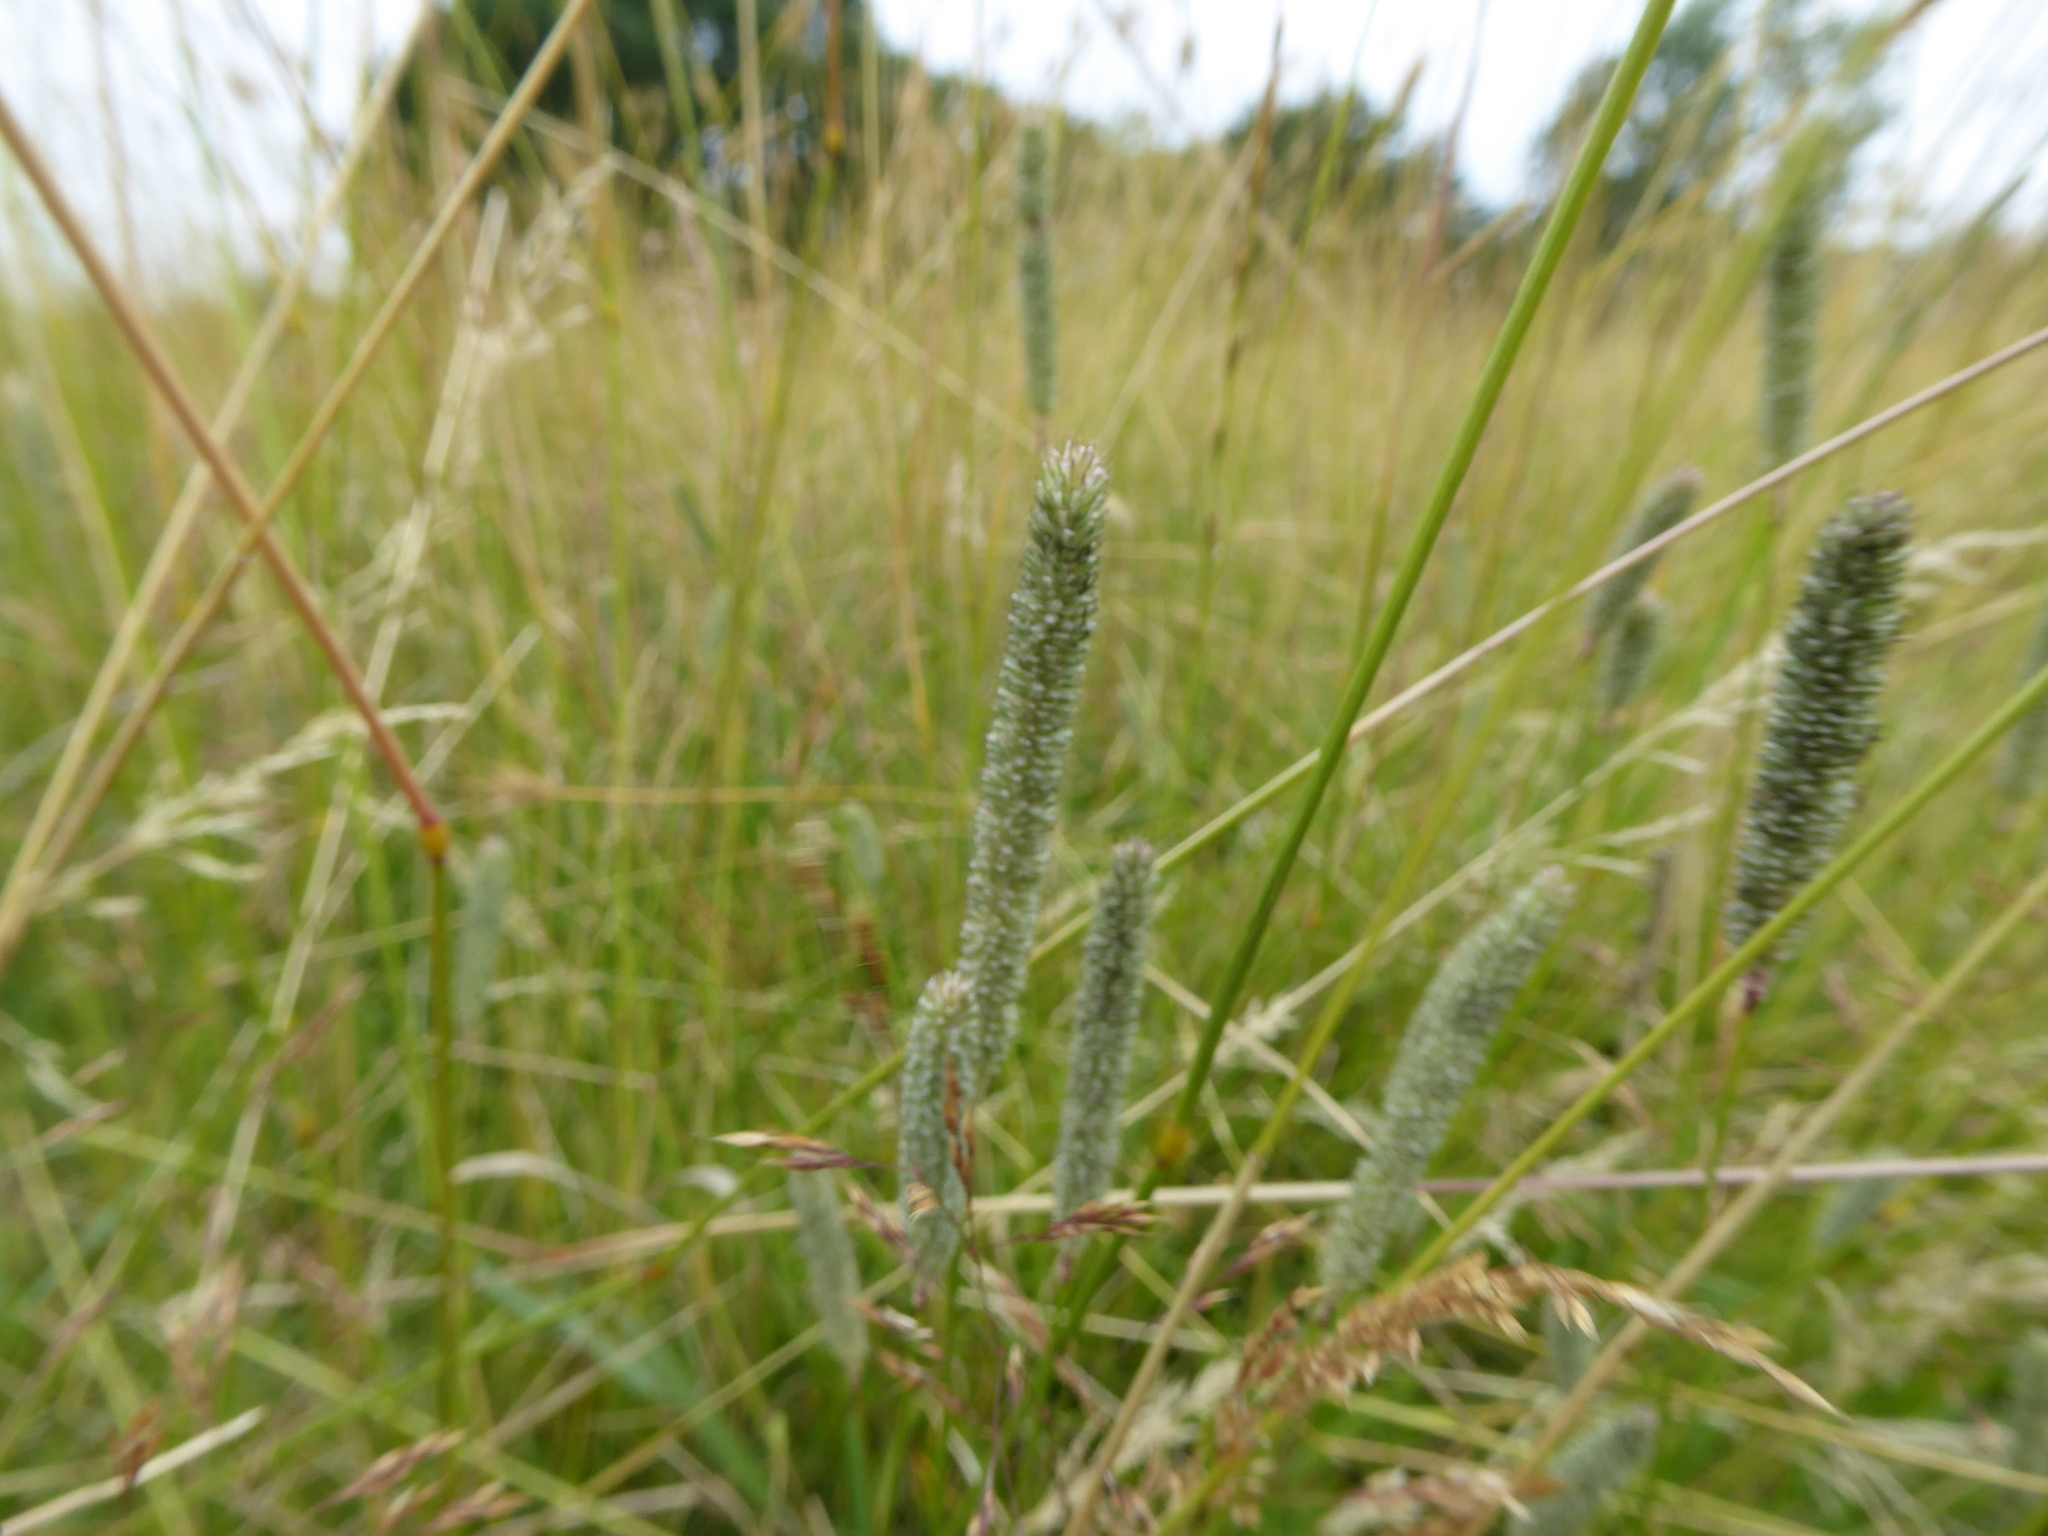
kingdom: Plantae
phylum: Tracheophyta
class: Liliopsida
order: Poales
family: Poaceae
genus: Phleum
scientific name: Phleum pratense
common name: Timothy grass
